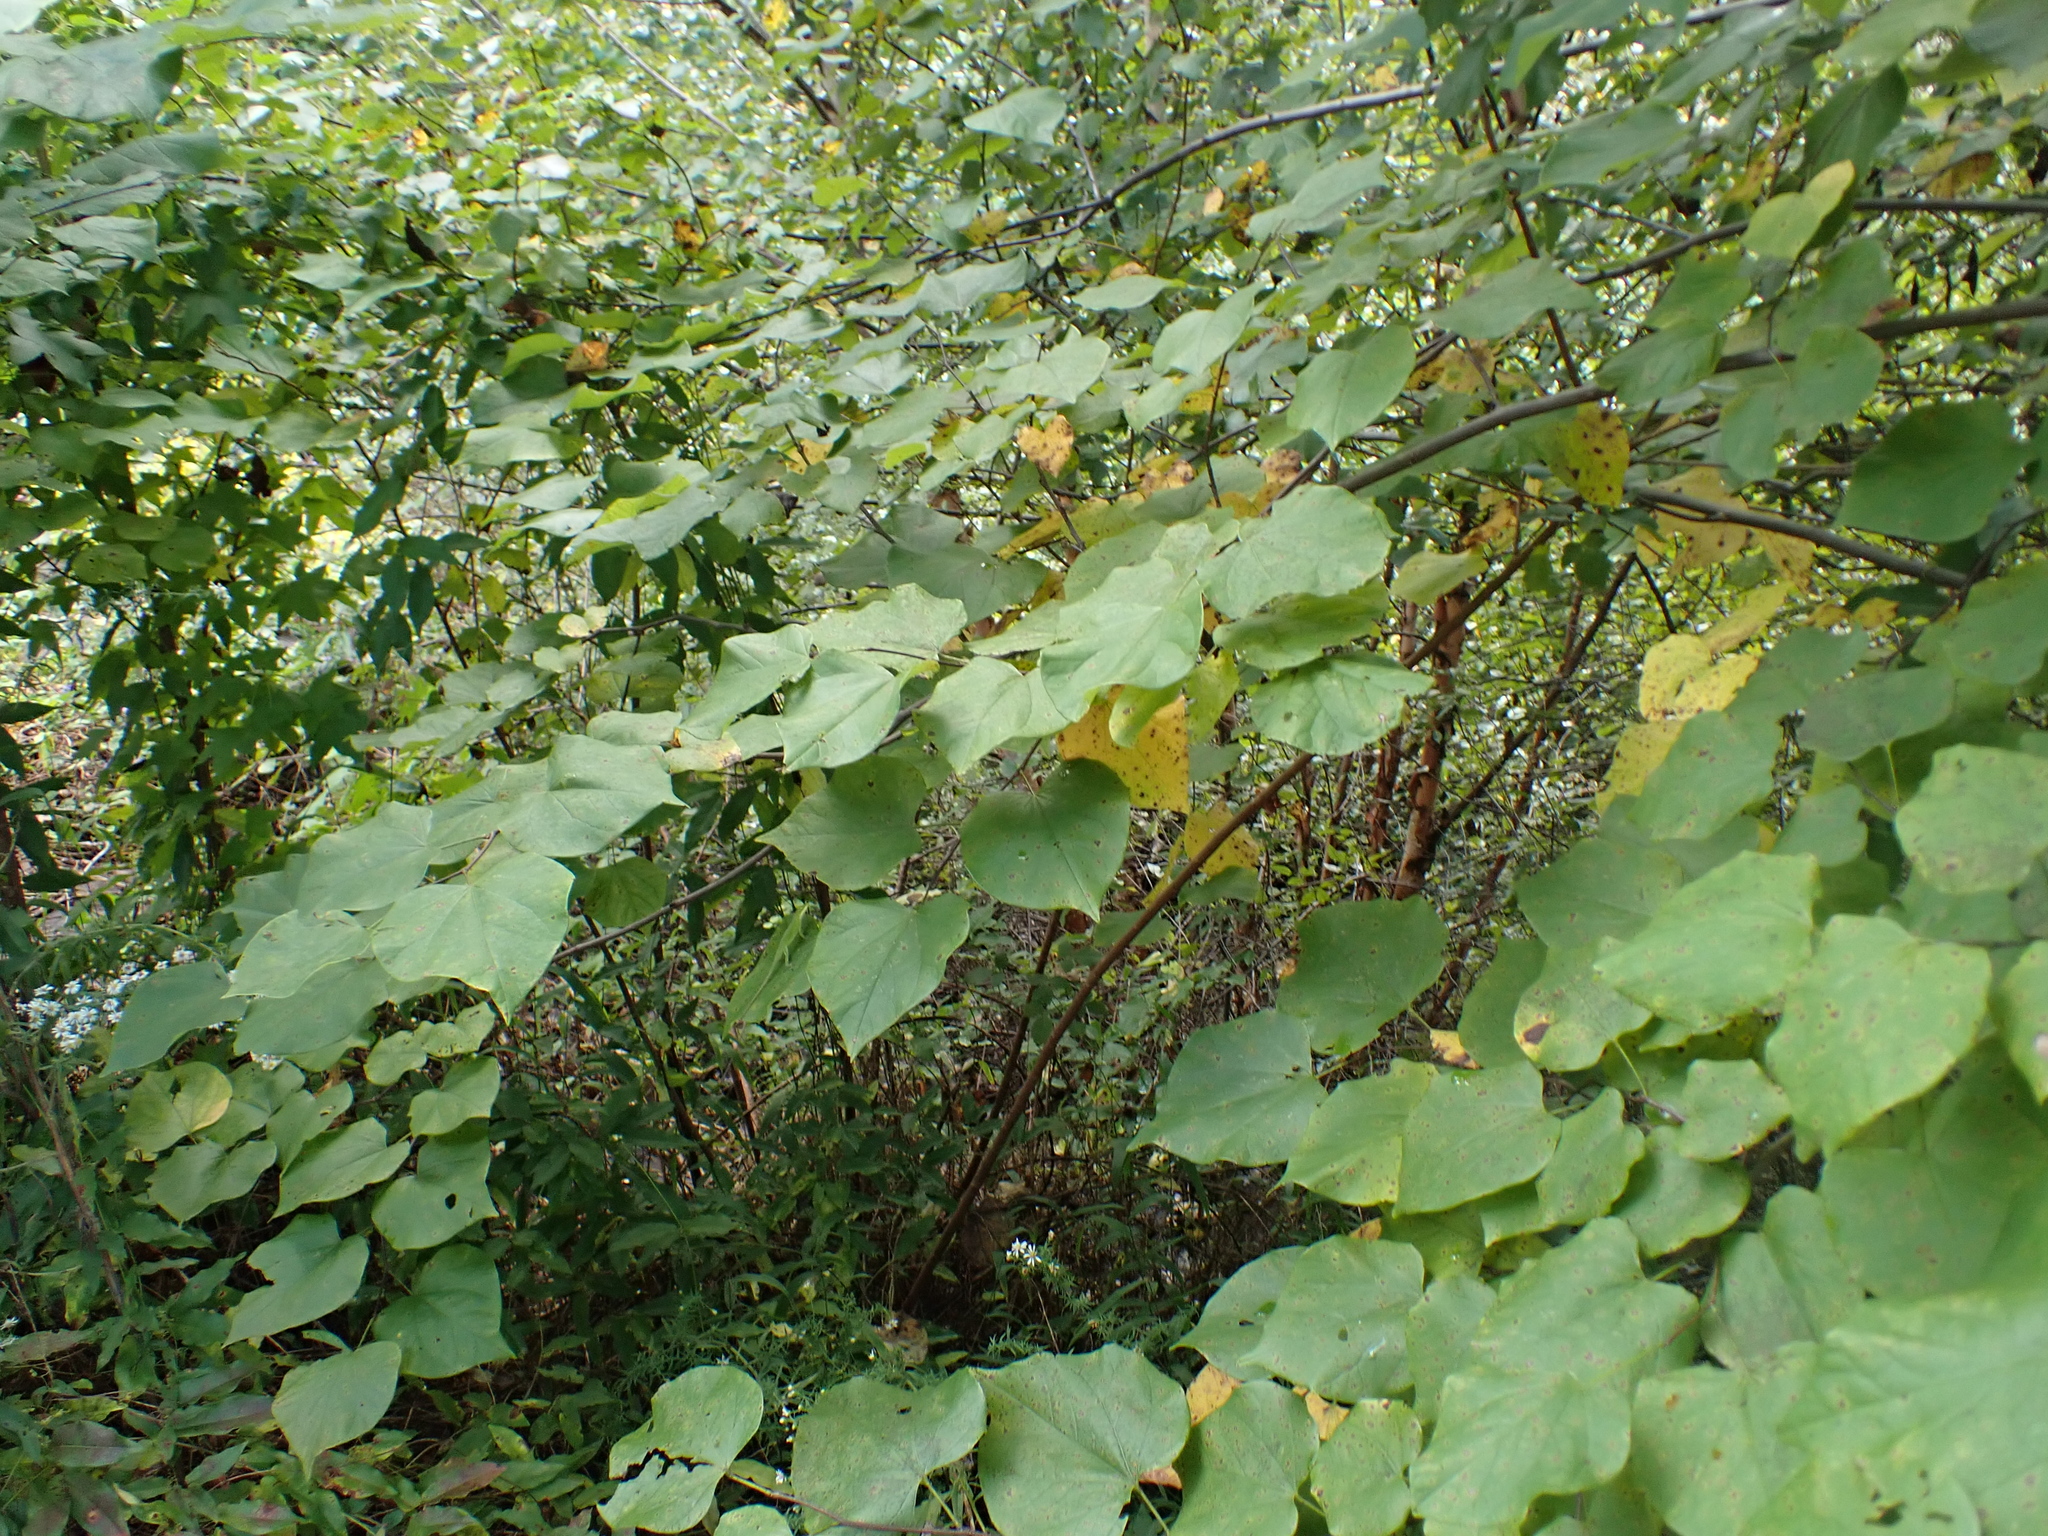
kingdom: Plantae
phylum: Tracheophyta
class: Magnoliopsida
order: Fabales
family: Fabaceae
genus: Cercis
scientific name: Cercis canadensis
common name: Eastern redbud
